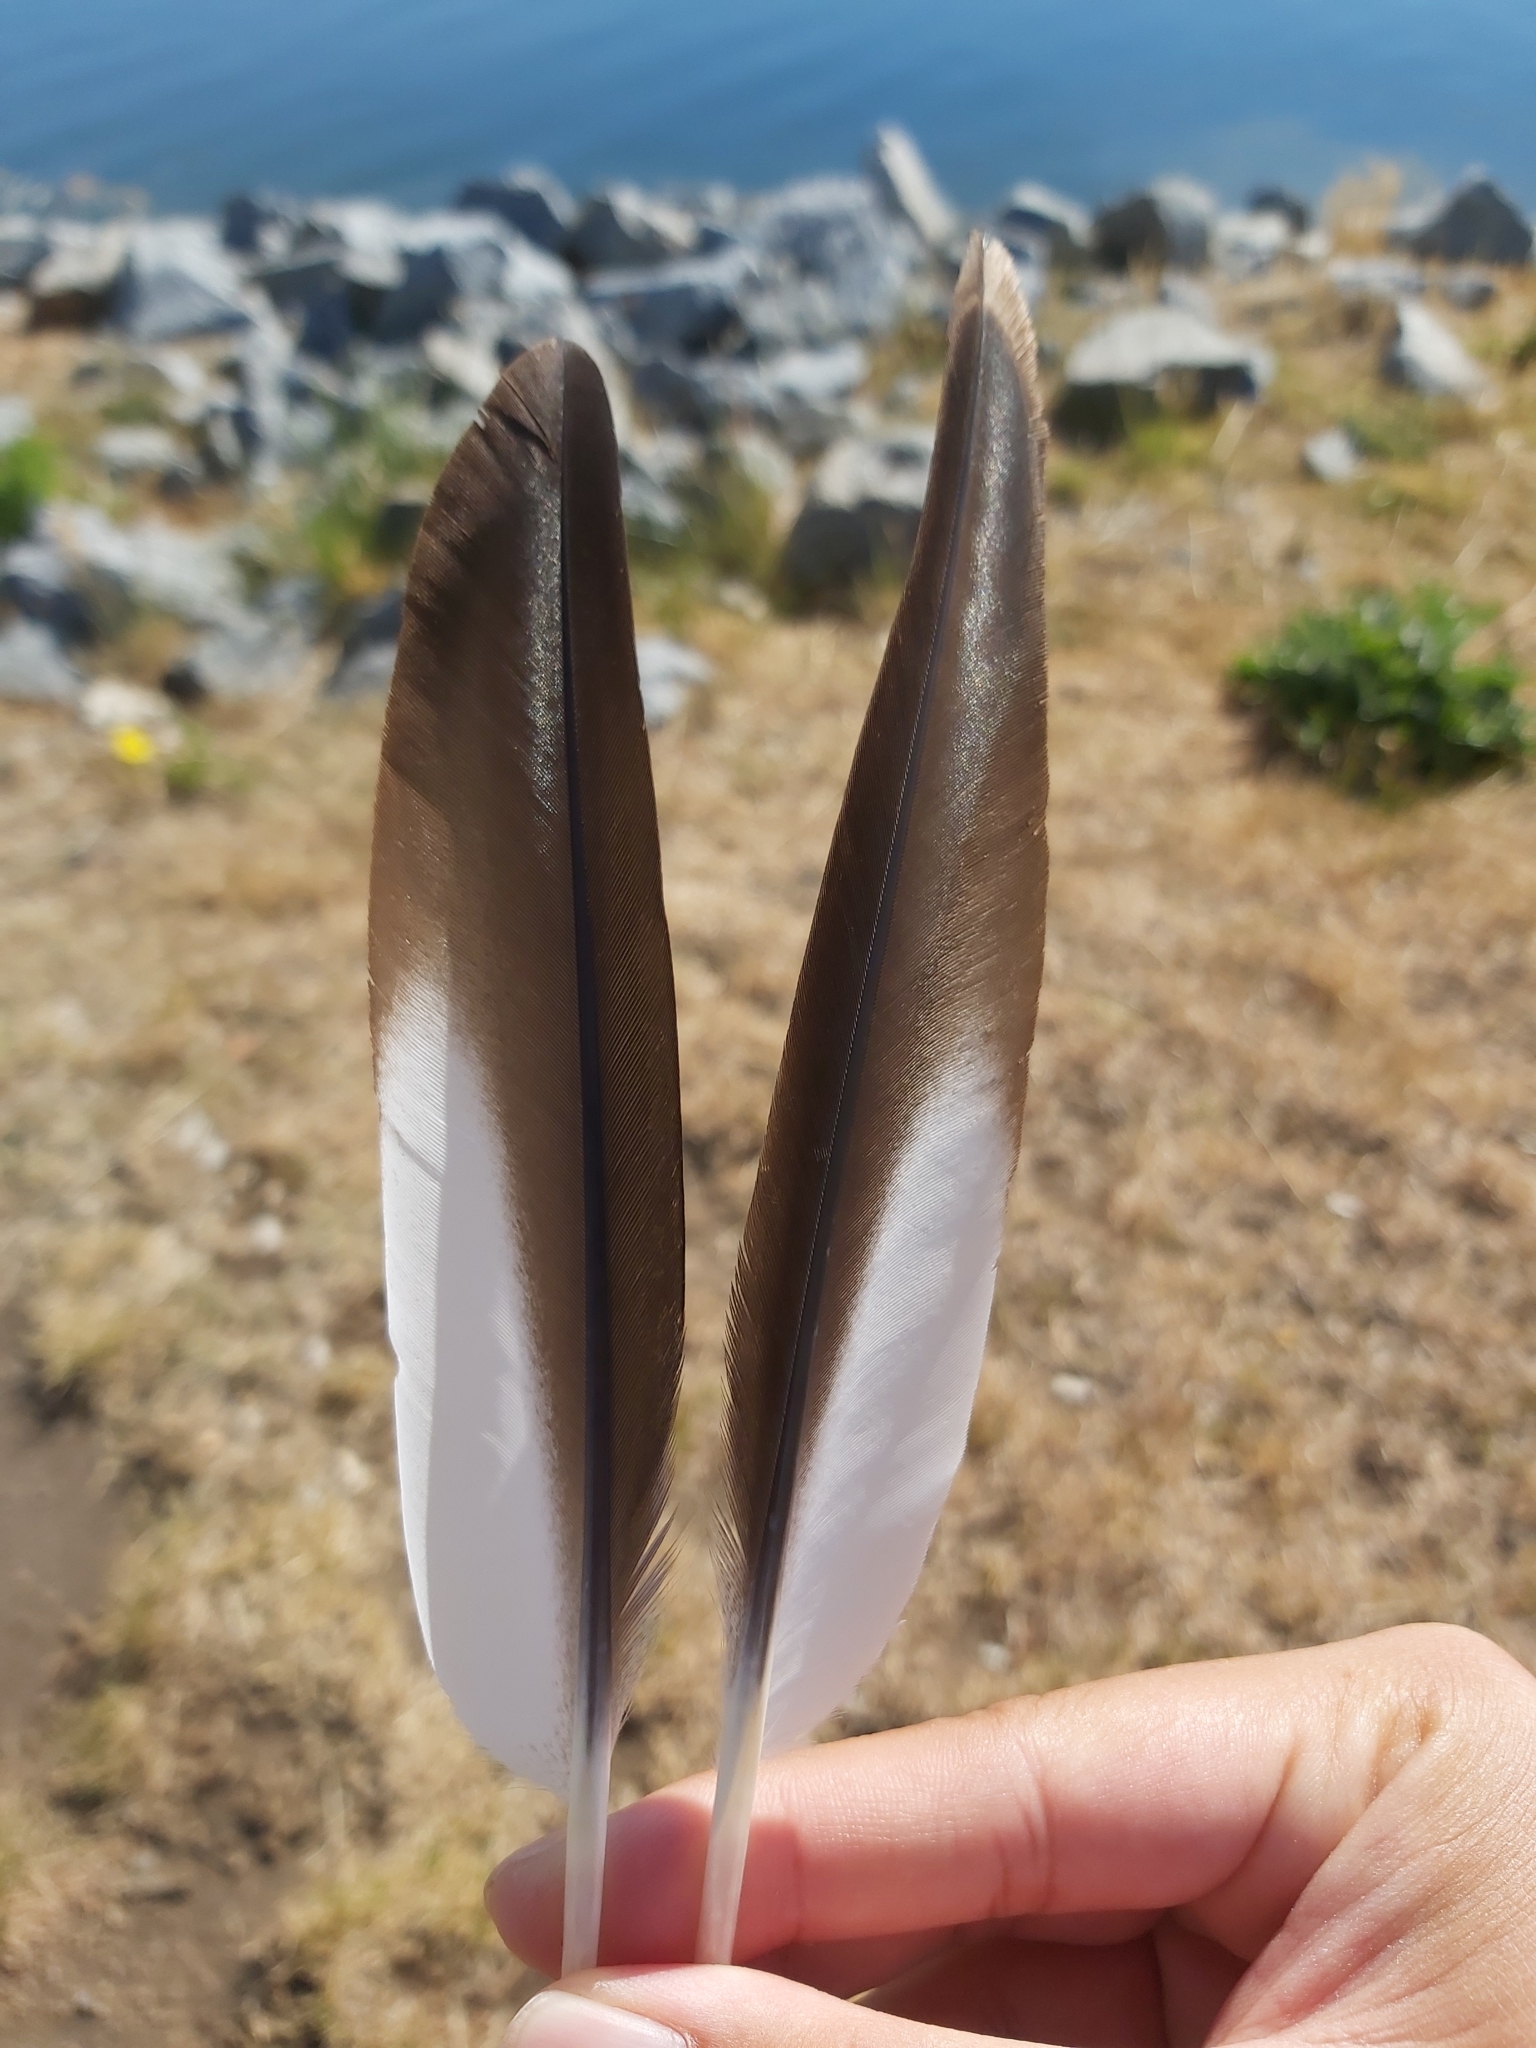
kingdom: Animalia
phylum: Chordata
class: Aves
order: Anseriformes
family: Anatidae
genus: Chenonetta
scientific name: Chenonetta jubata
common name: Maned duck
